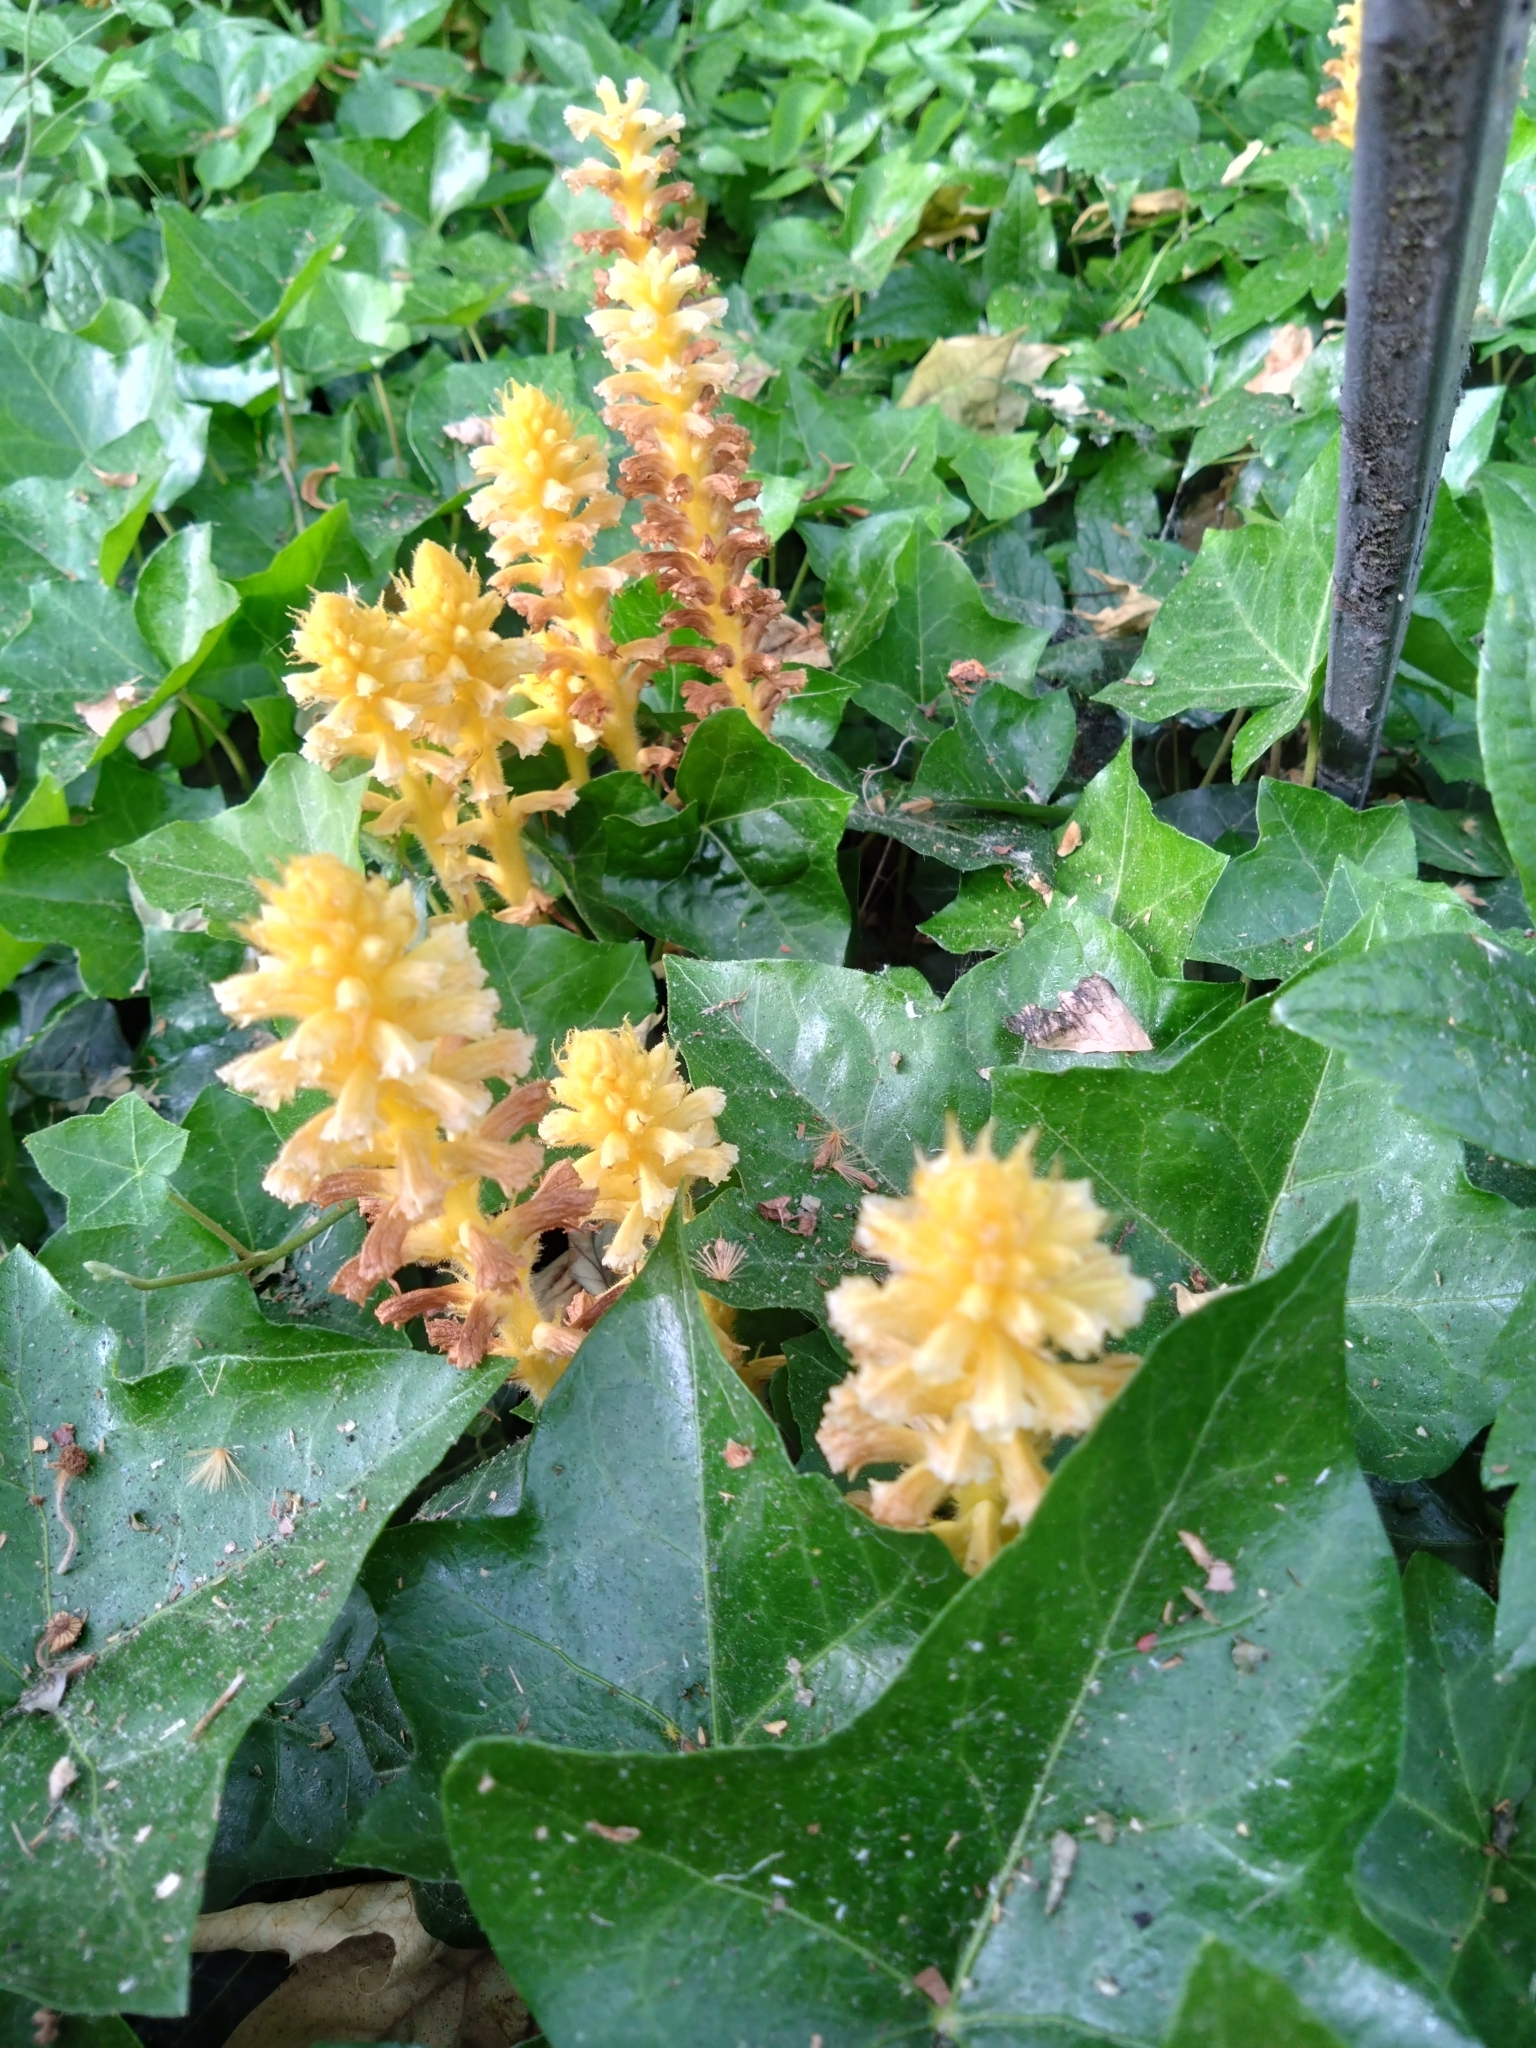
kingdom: Plantae
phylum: Tracheophyta
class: Magnoliopsida
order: Lamiales
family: Orobanchaceae
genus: Orobanche
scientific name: Orobanche hederae
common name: Ivy broomrape
